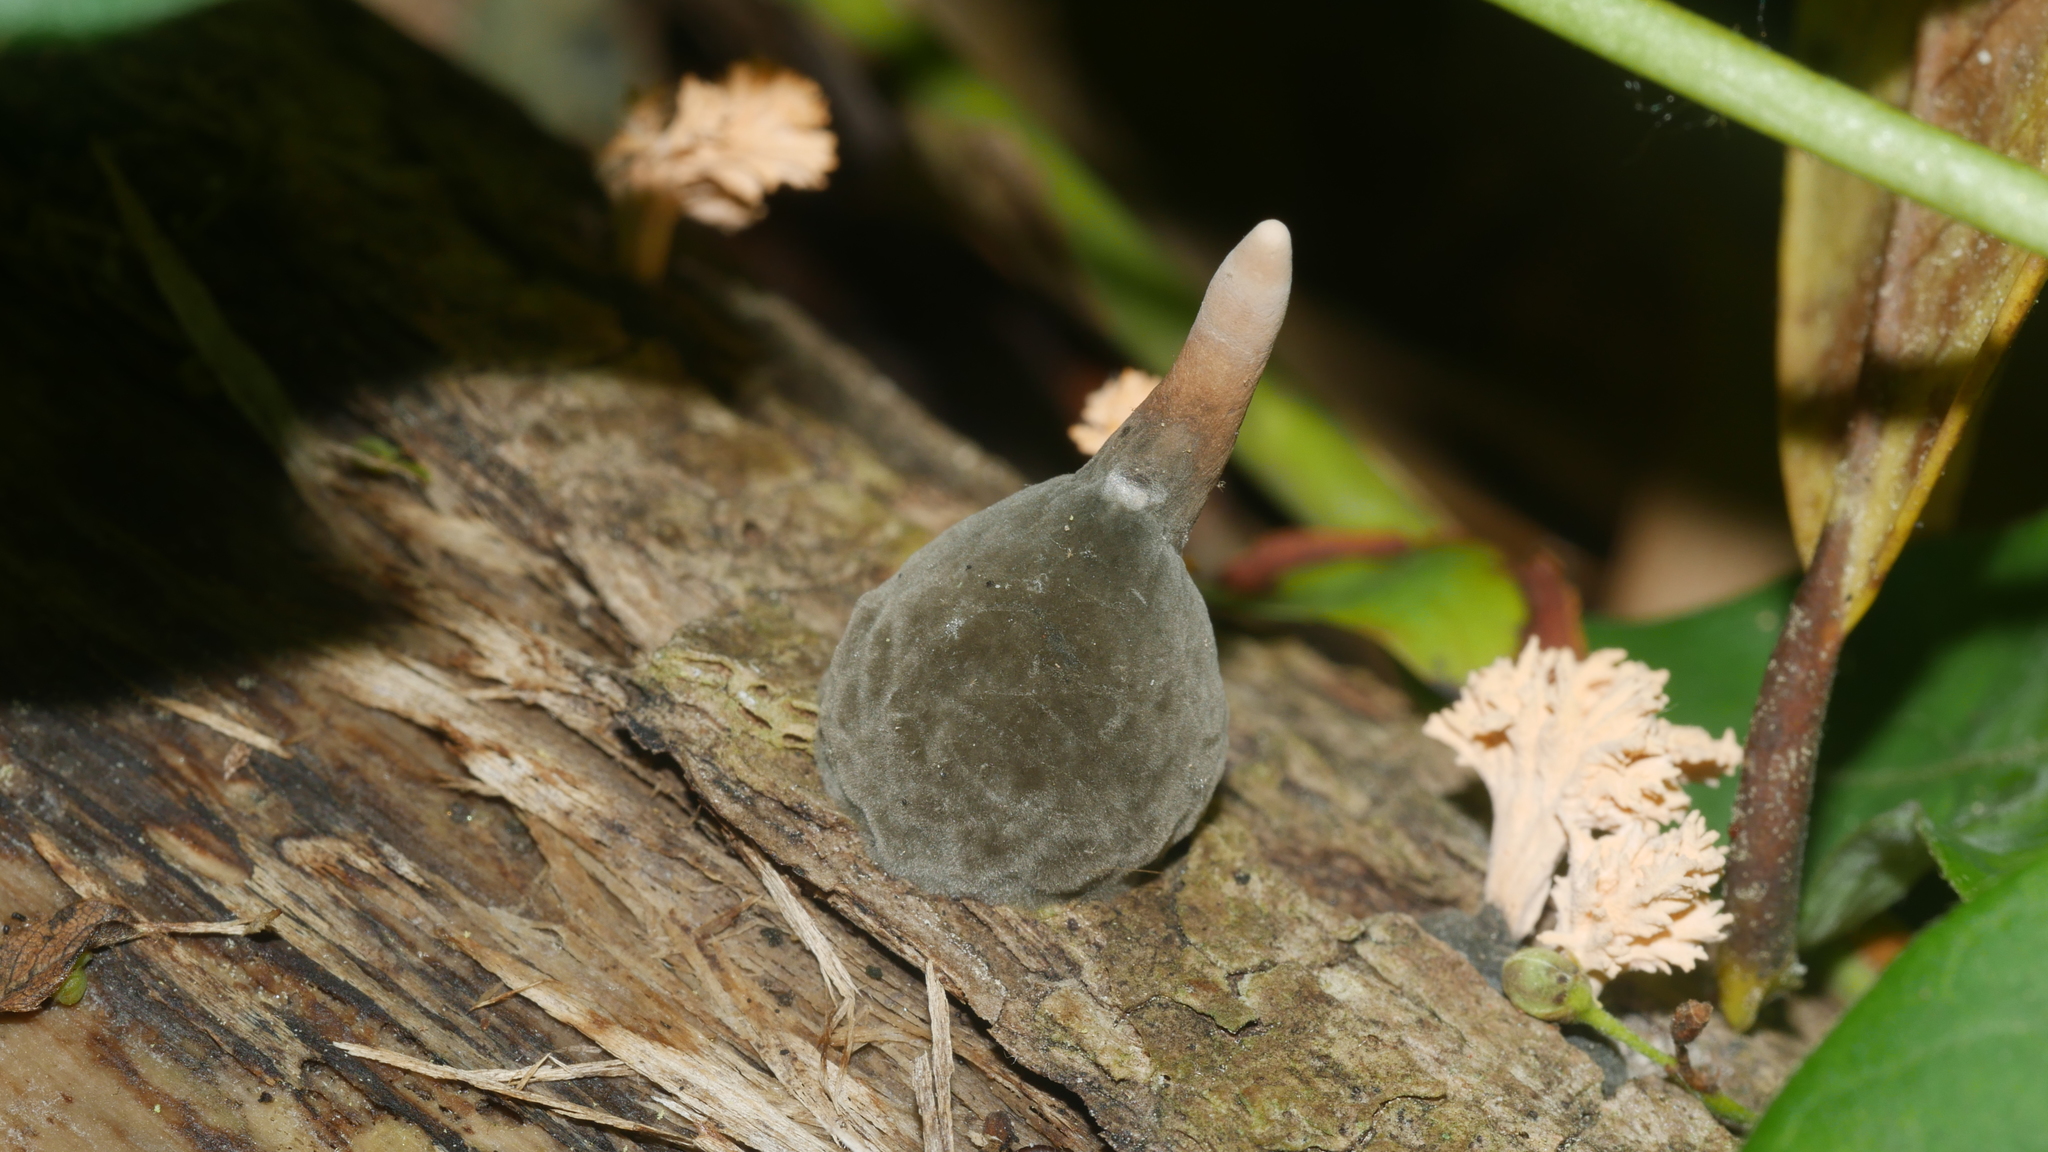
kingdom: Fungi
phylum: Ascomycota
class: Sordariomycetes
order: Xylariales
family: Xylariaceae
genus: Xylaria
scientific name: Xylaria cubensis
